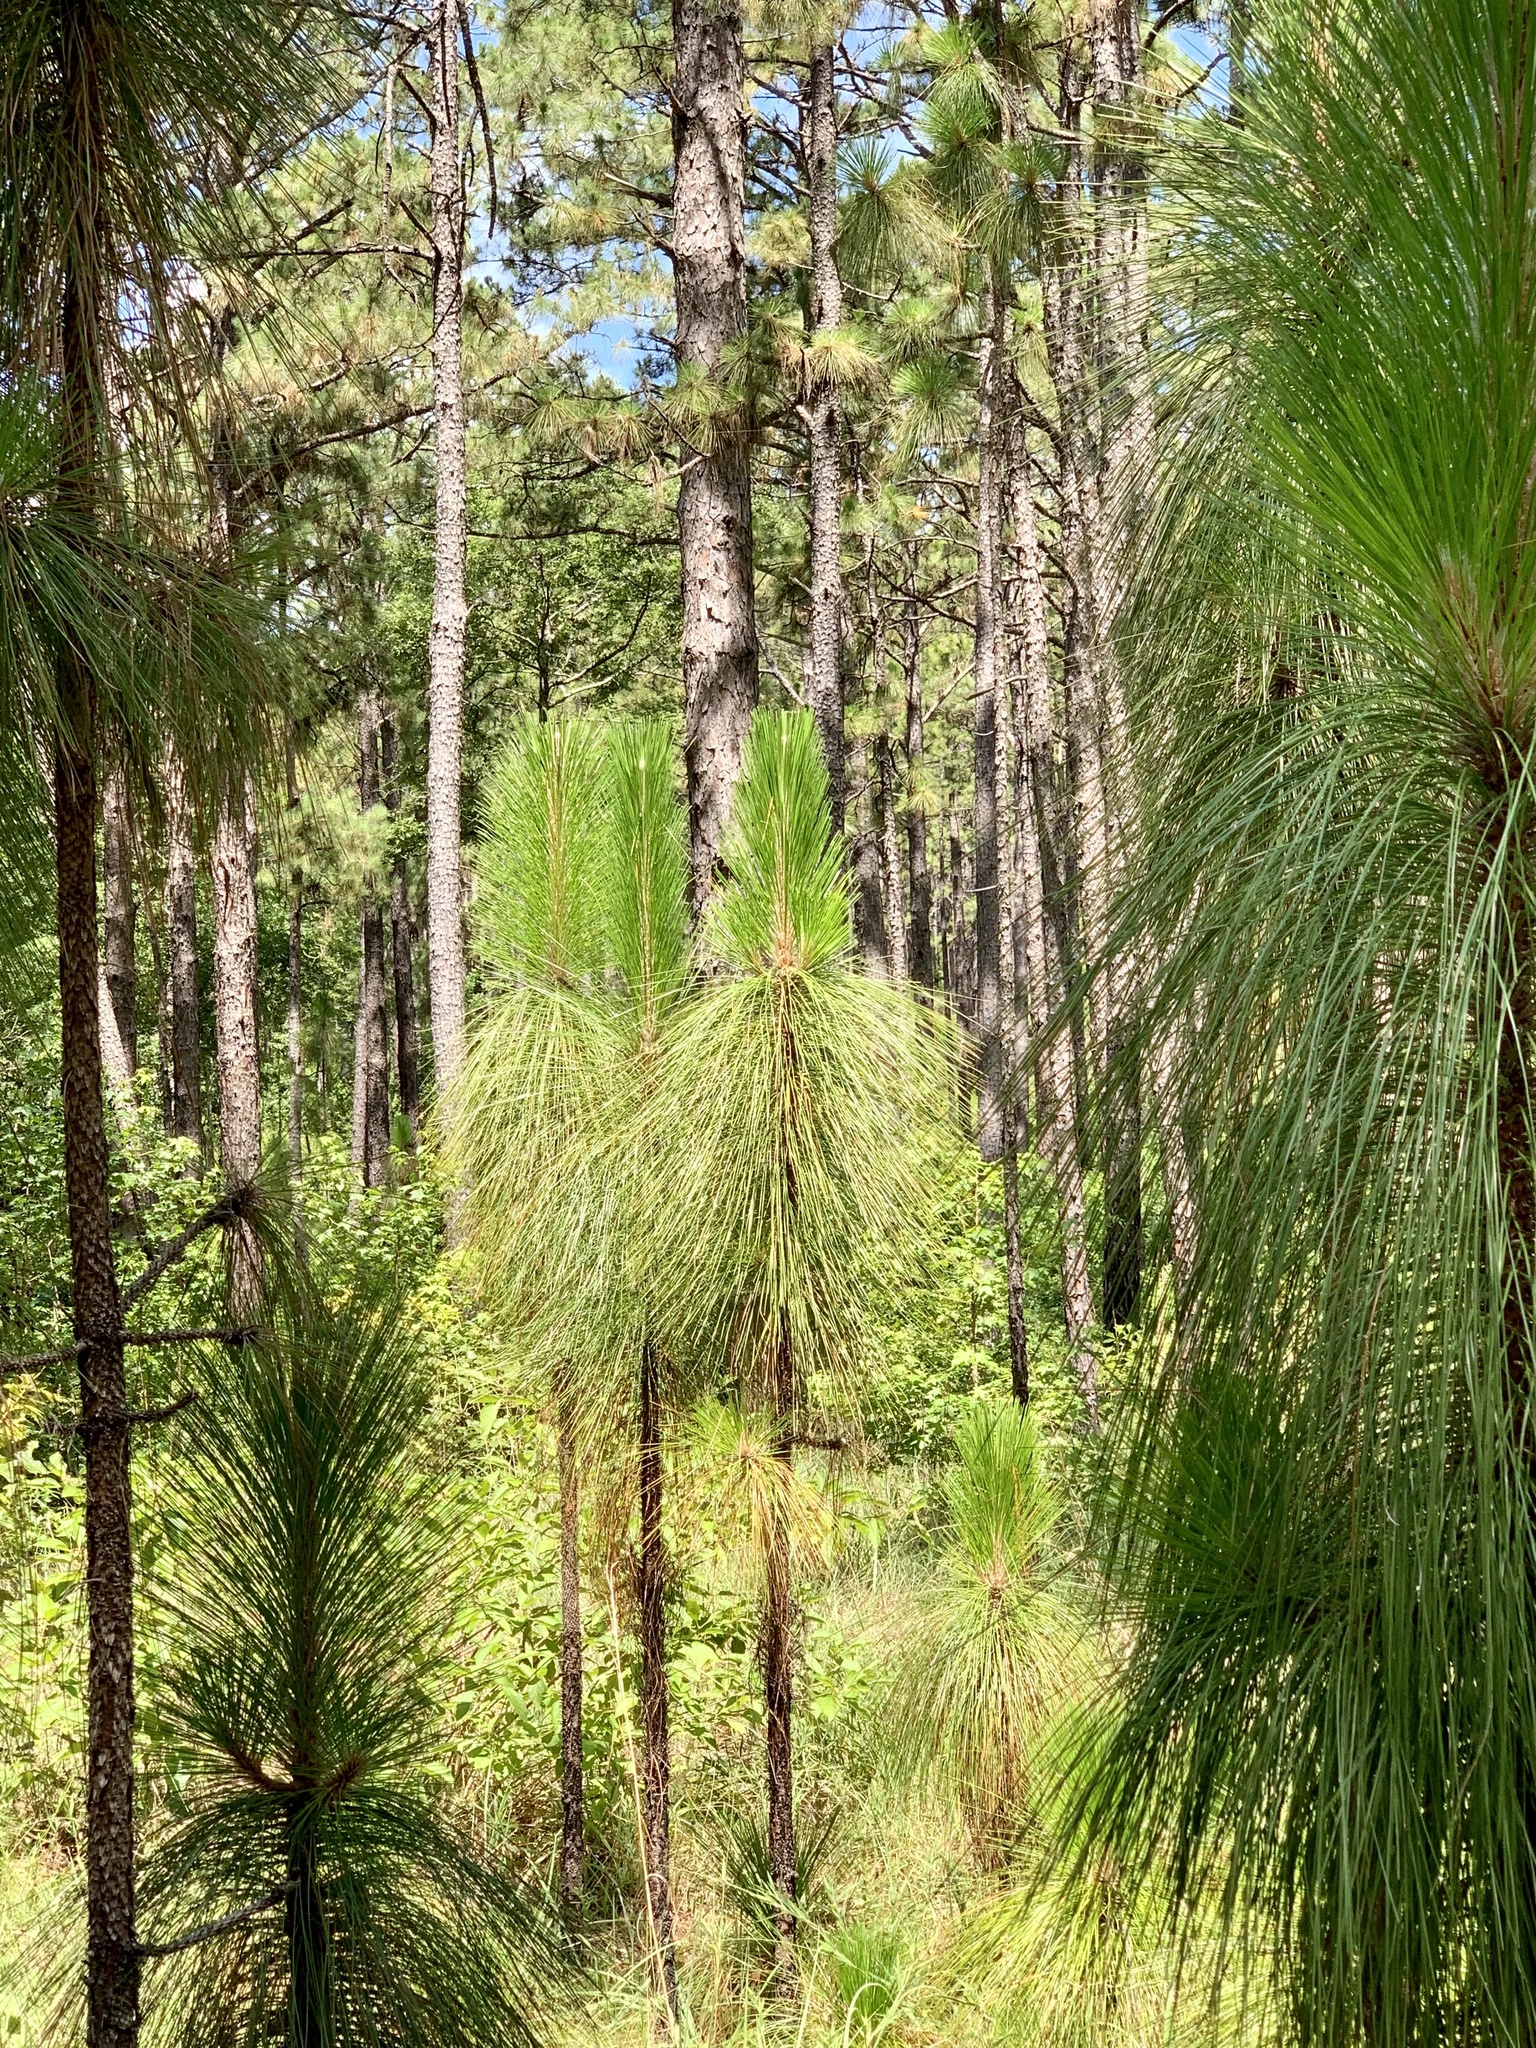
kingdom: Plantae
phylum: Tracheophyta
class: Pinopsida
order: Pinales
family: Pinaceae
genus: Pinus
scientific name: Pinus palustris
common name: Longleaf pine
